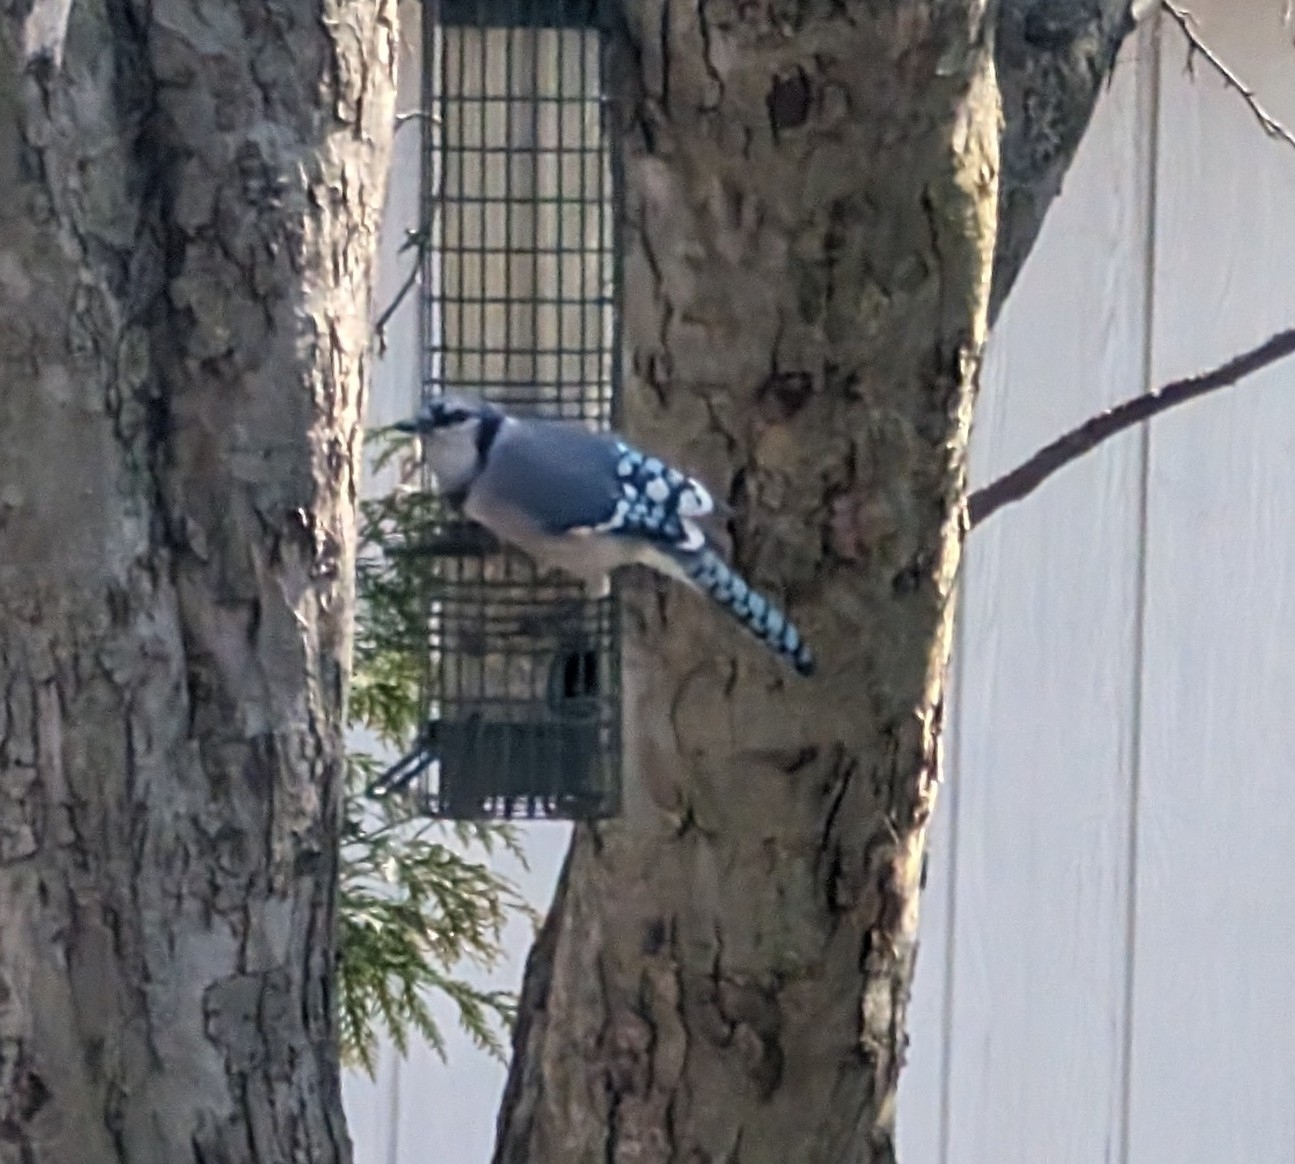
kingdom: Animalia
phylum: Chordata
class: Aves
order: Passeriformes
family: Corvidae
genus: Cyanocitta
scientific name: Cyanocitta cristata
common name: Blue jay
